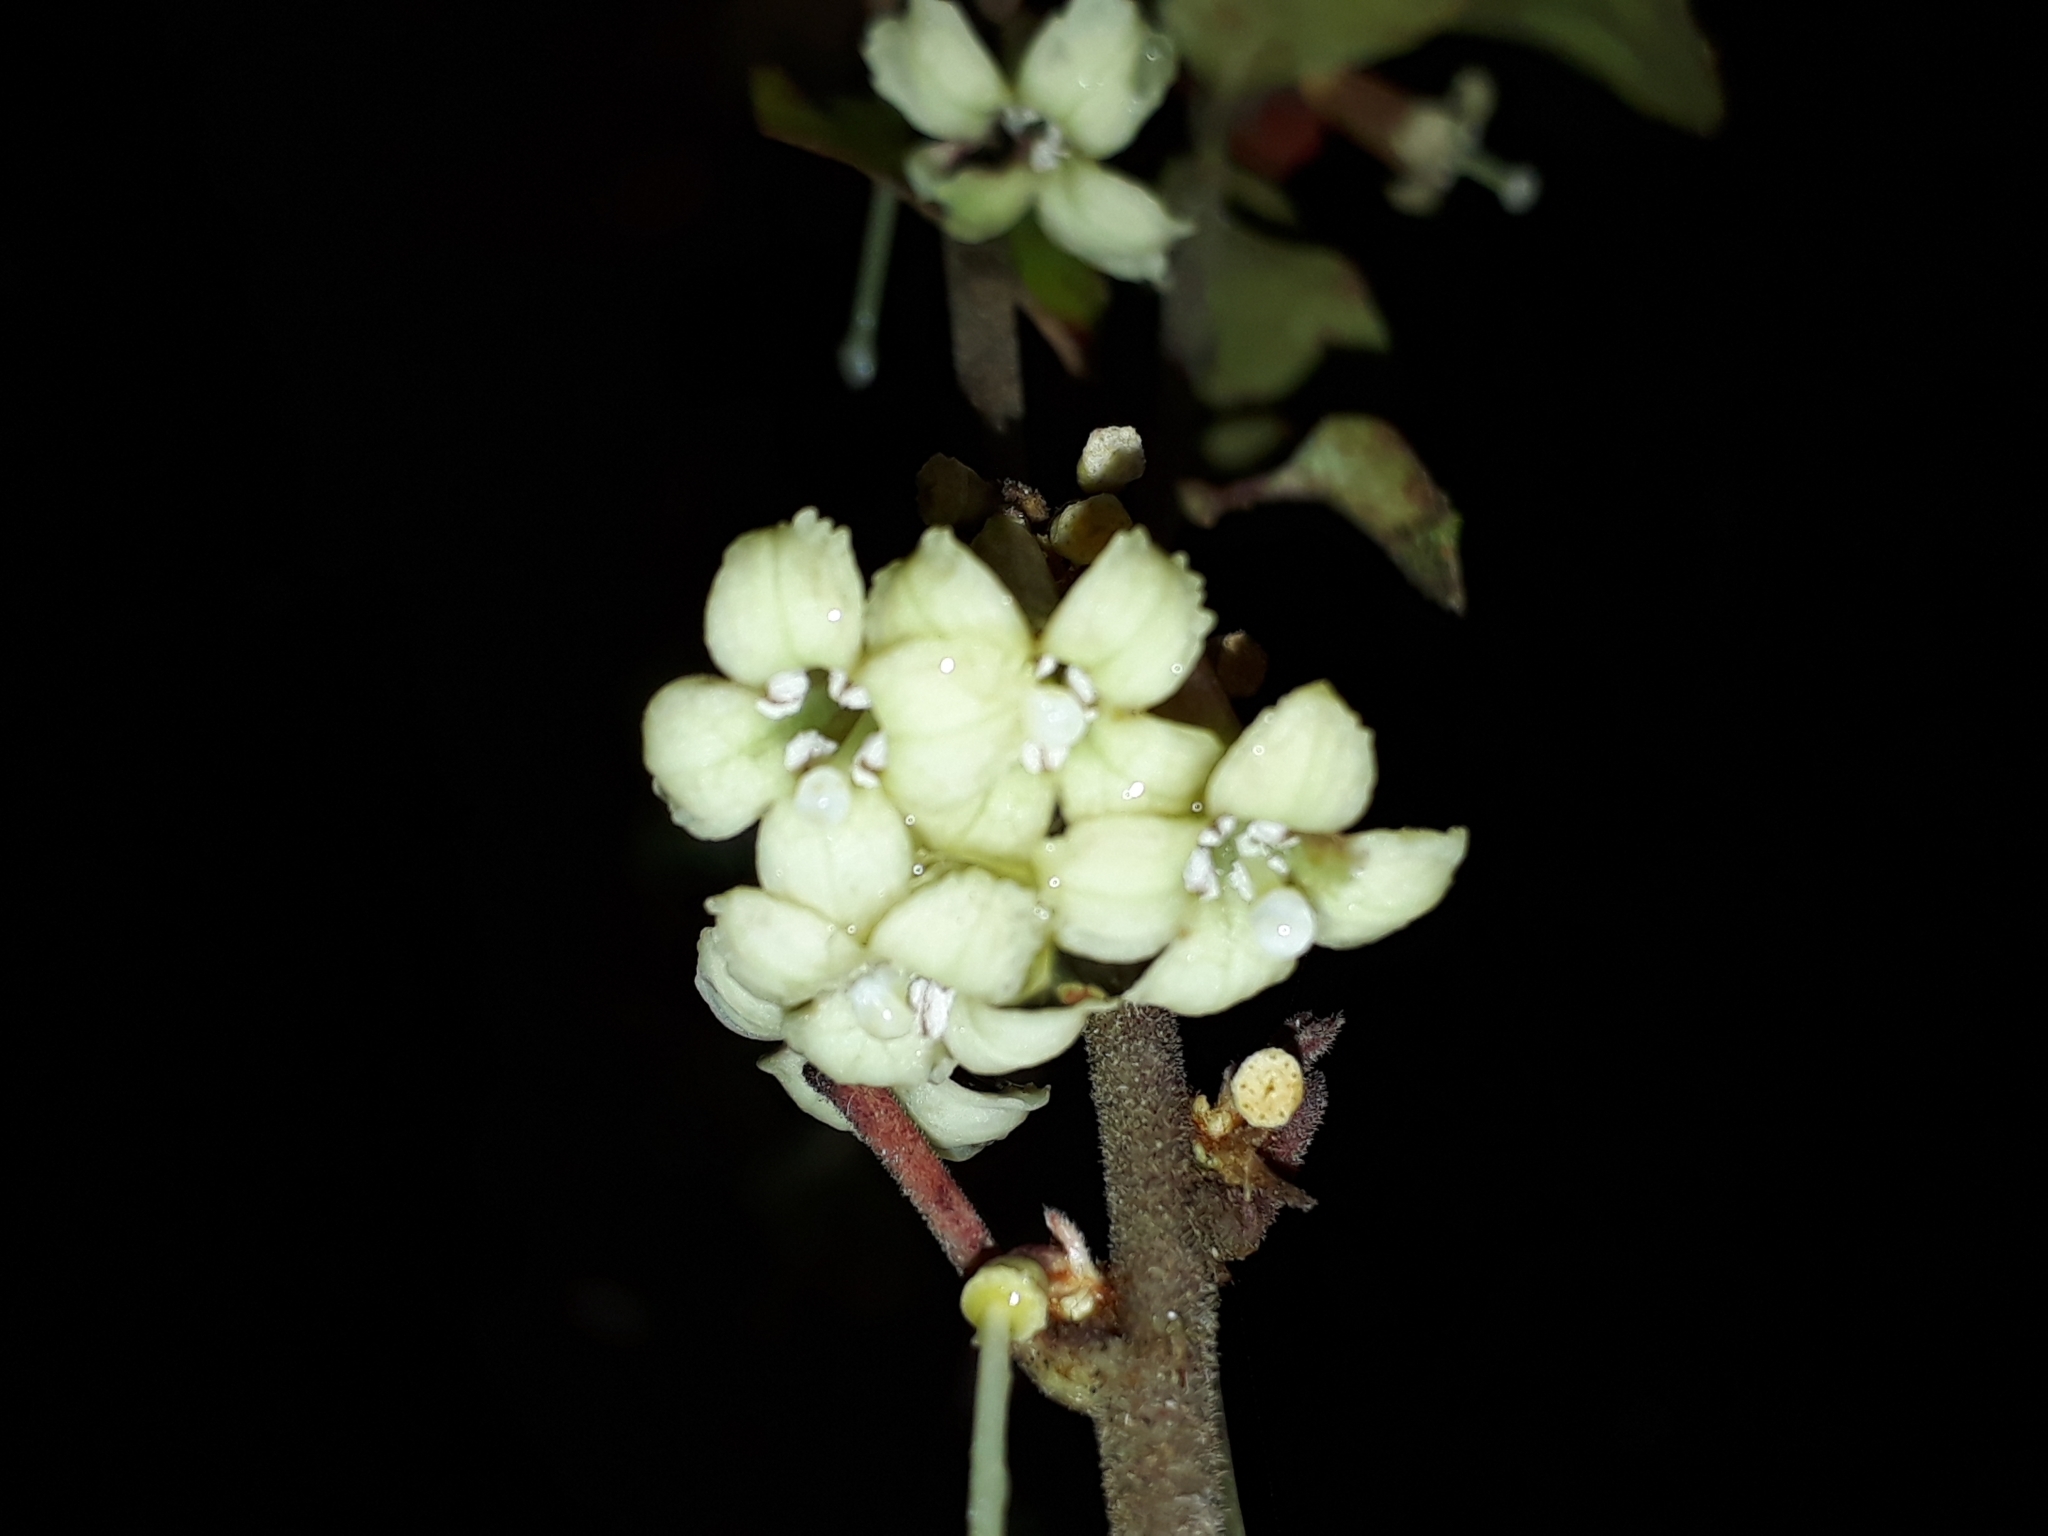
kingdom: Plantae
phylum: Tracheophyta
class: Magnoliopsida
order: Asterales
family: Alseuosmiaceae
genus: Alseuosmia
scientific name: Alseuosmia banksii
